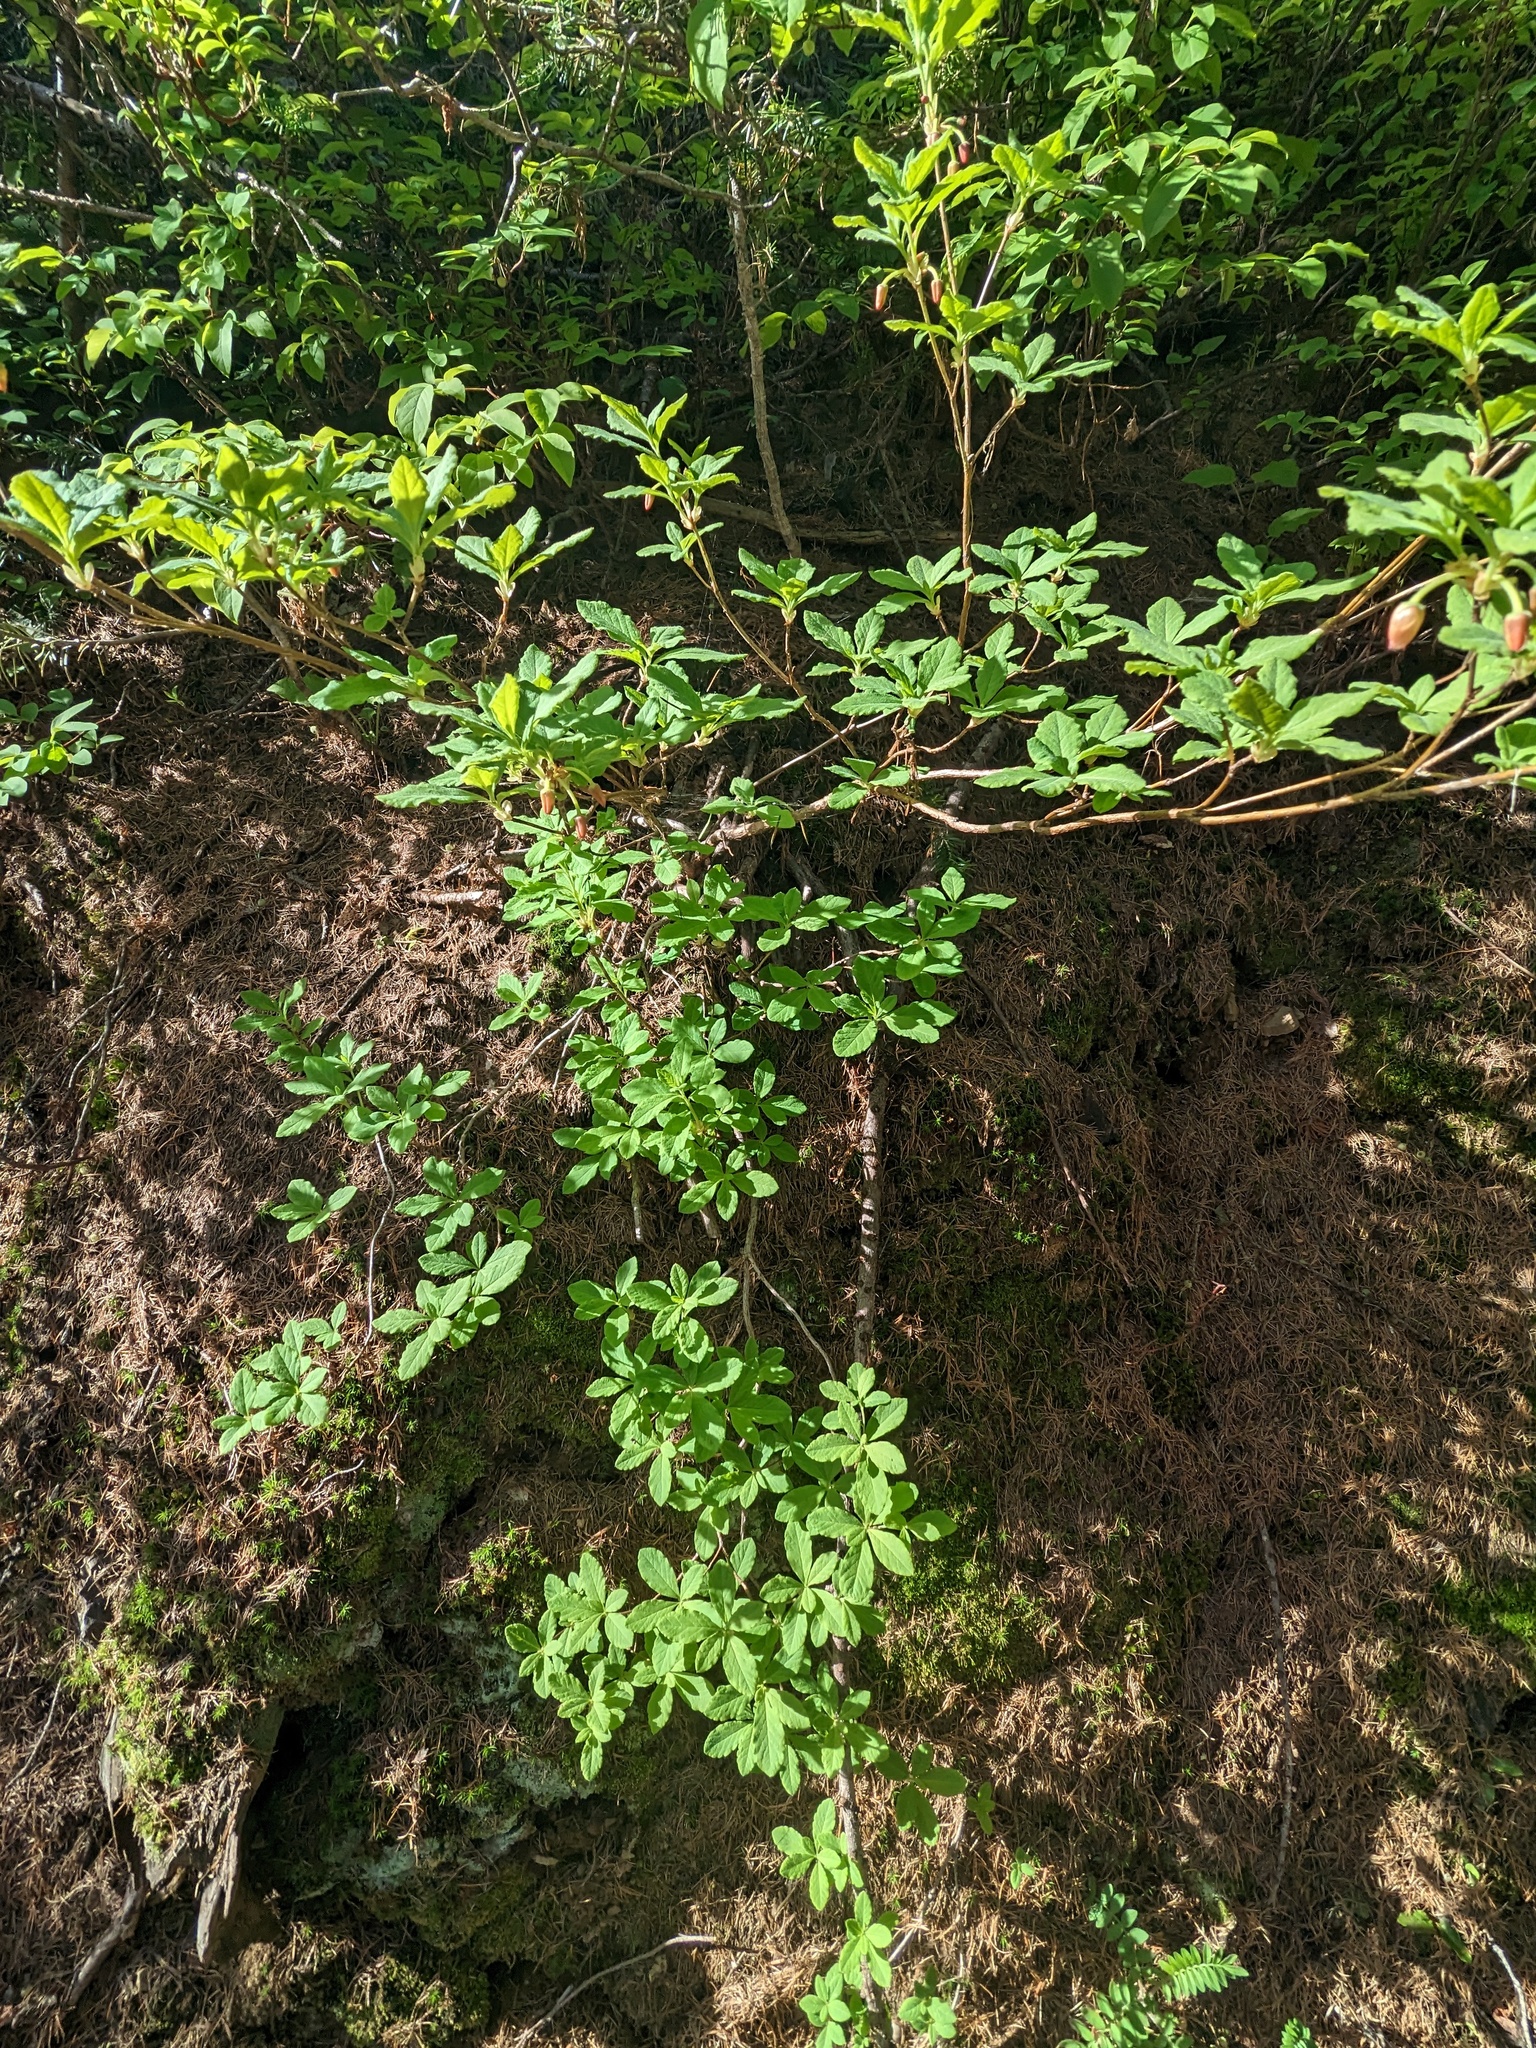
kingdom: Plantae
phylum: Tracheophyta
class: Magnoliopsida
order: Ericales
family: Ericaceae
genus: Rhododendron
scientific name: Rhododendron menziesii
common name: Pacific menziesia
